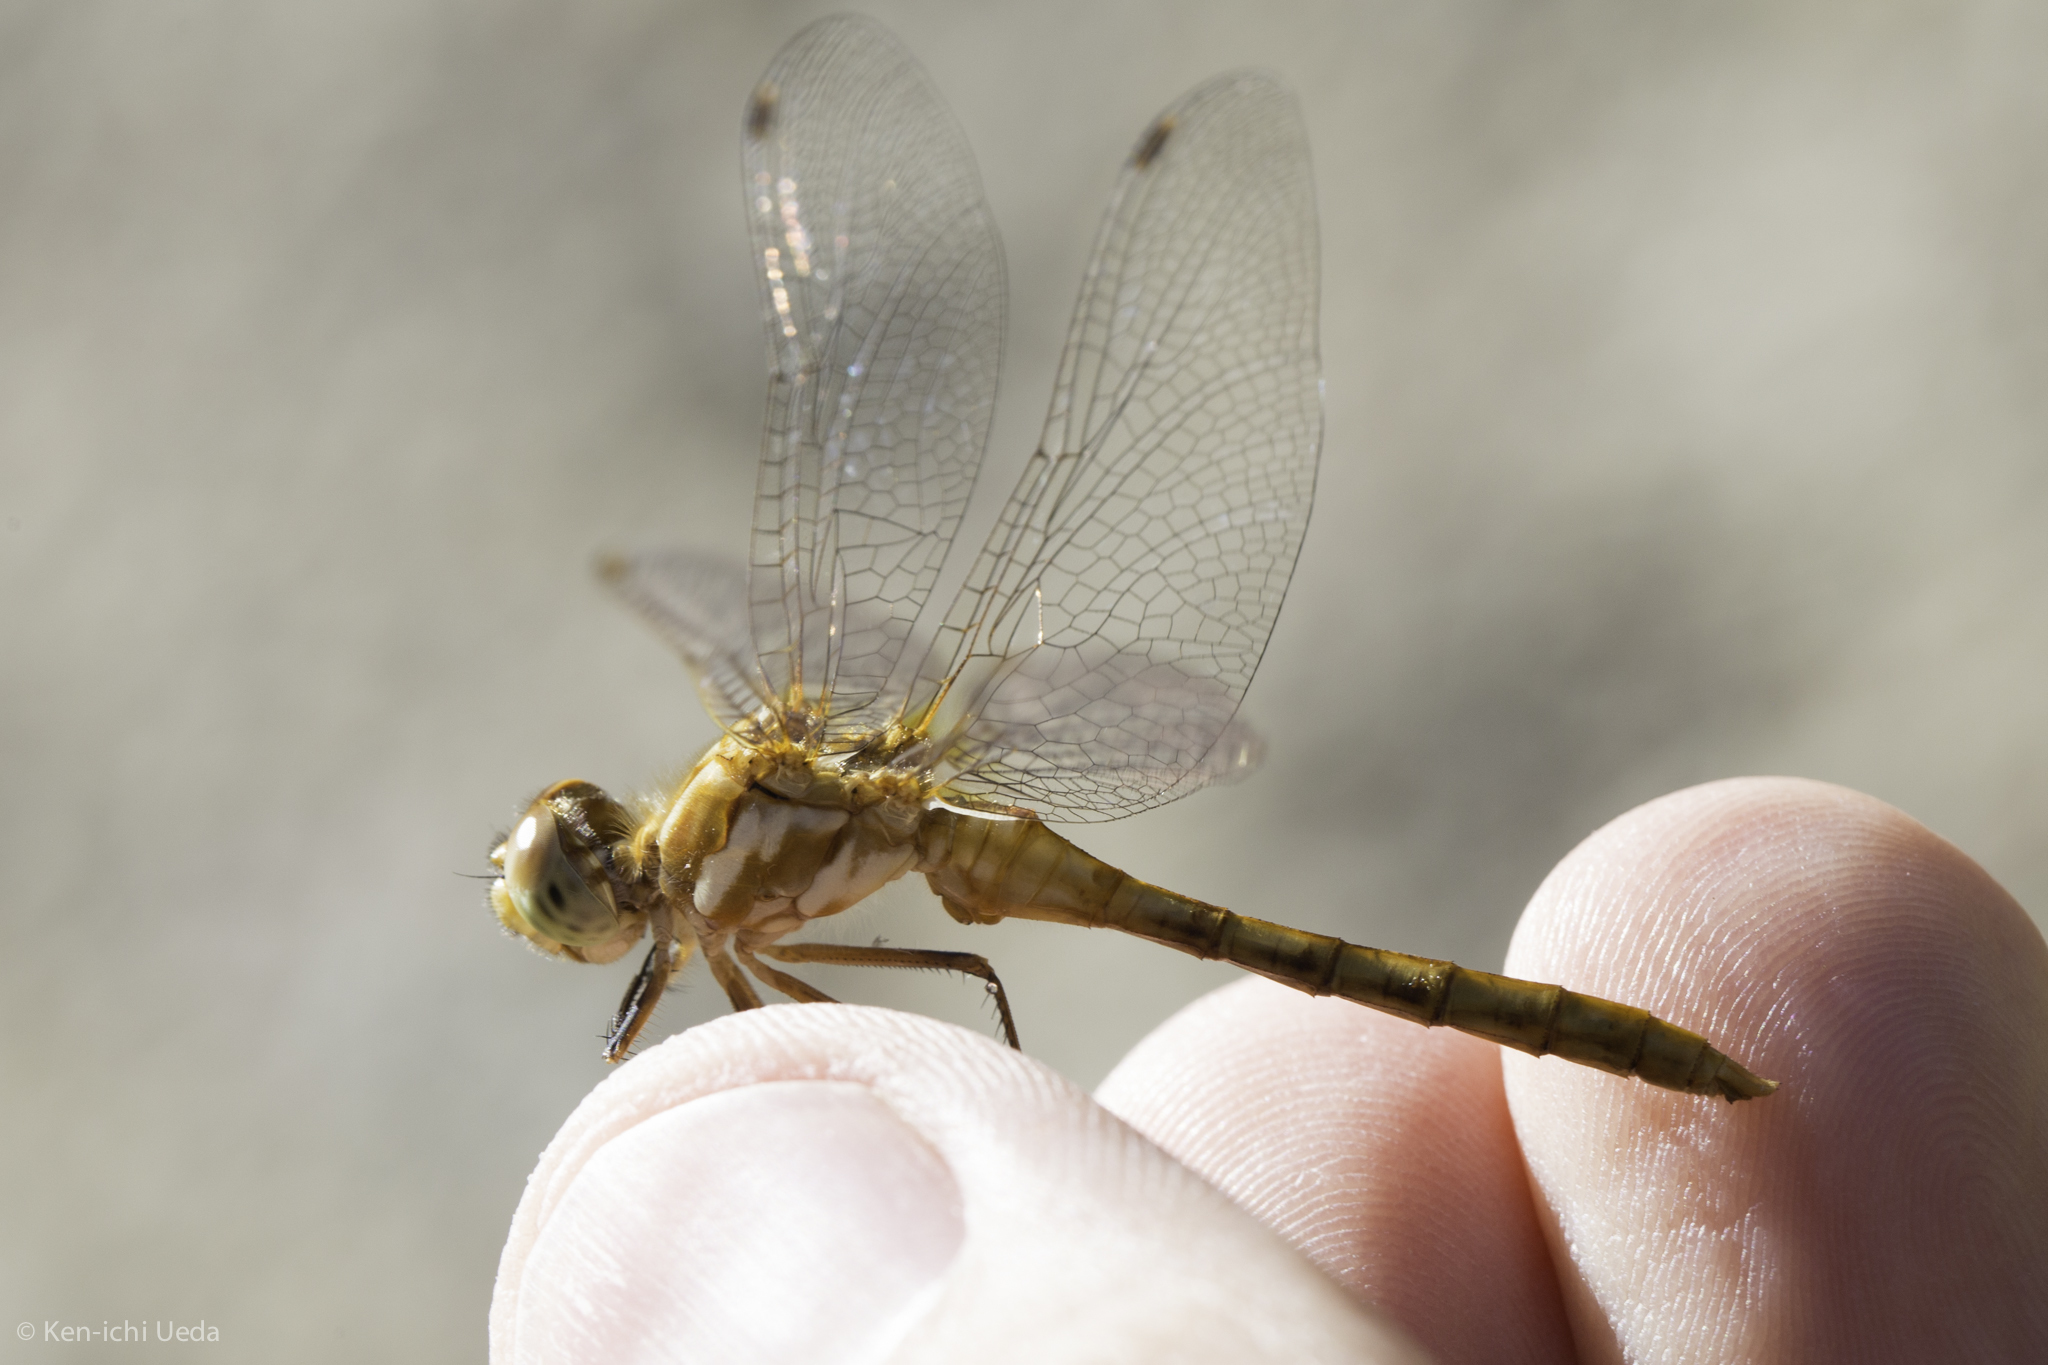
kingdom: Animalia
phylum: Arthropoda
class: Insecta
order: Odonata
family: Libellulidae
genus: Sympetrum
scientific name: Sympetrum pallipes
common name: Striped meadowhawk
